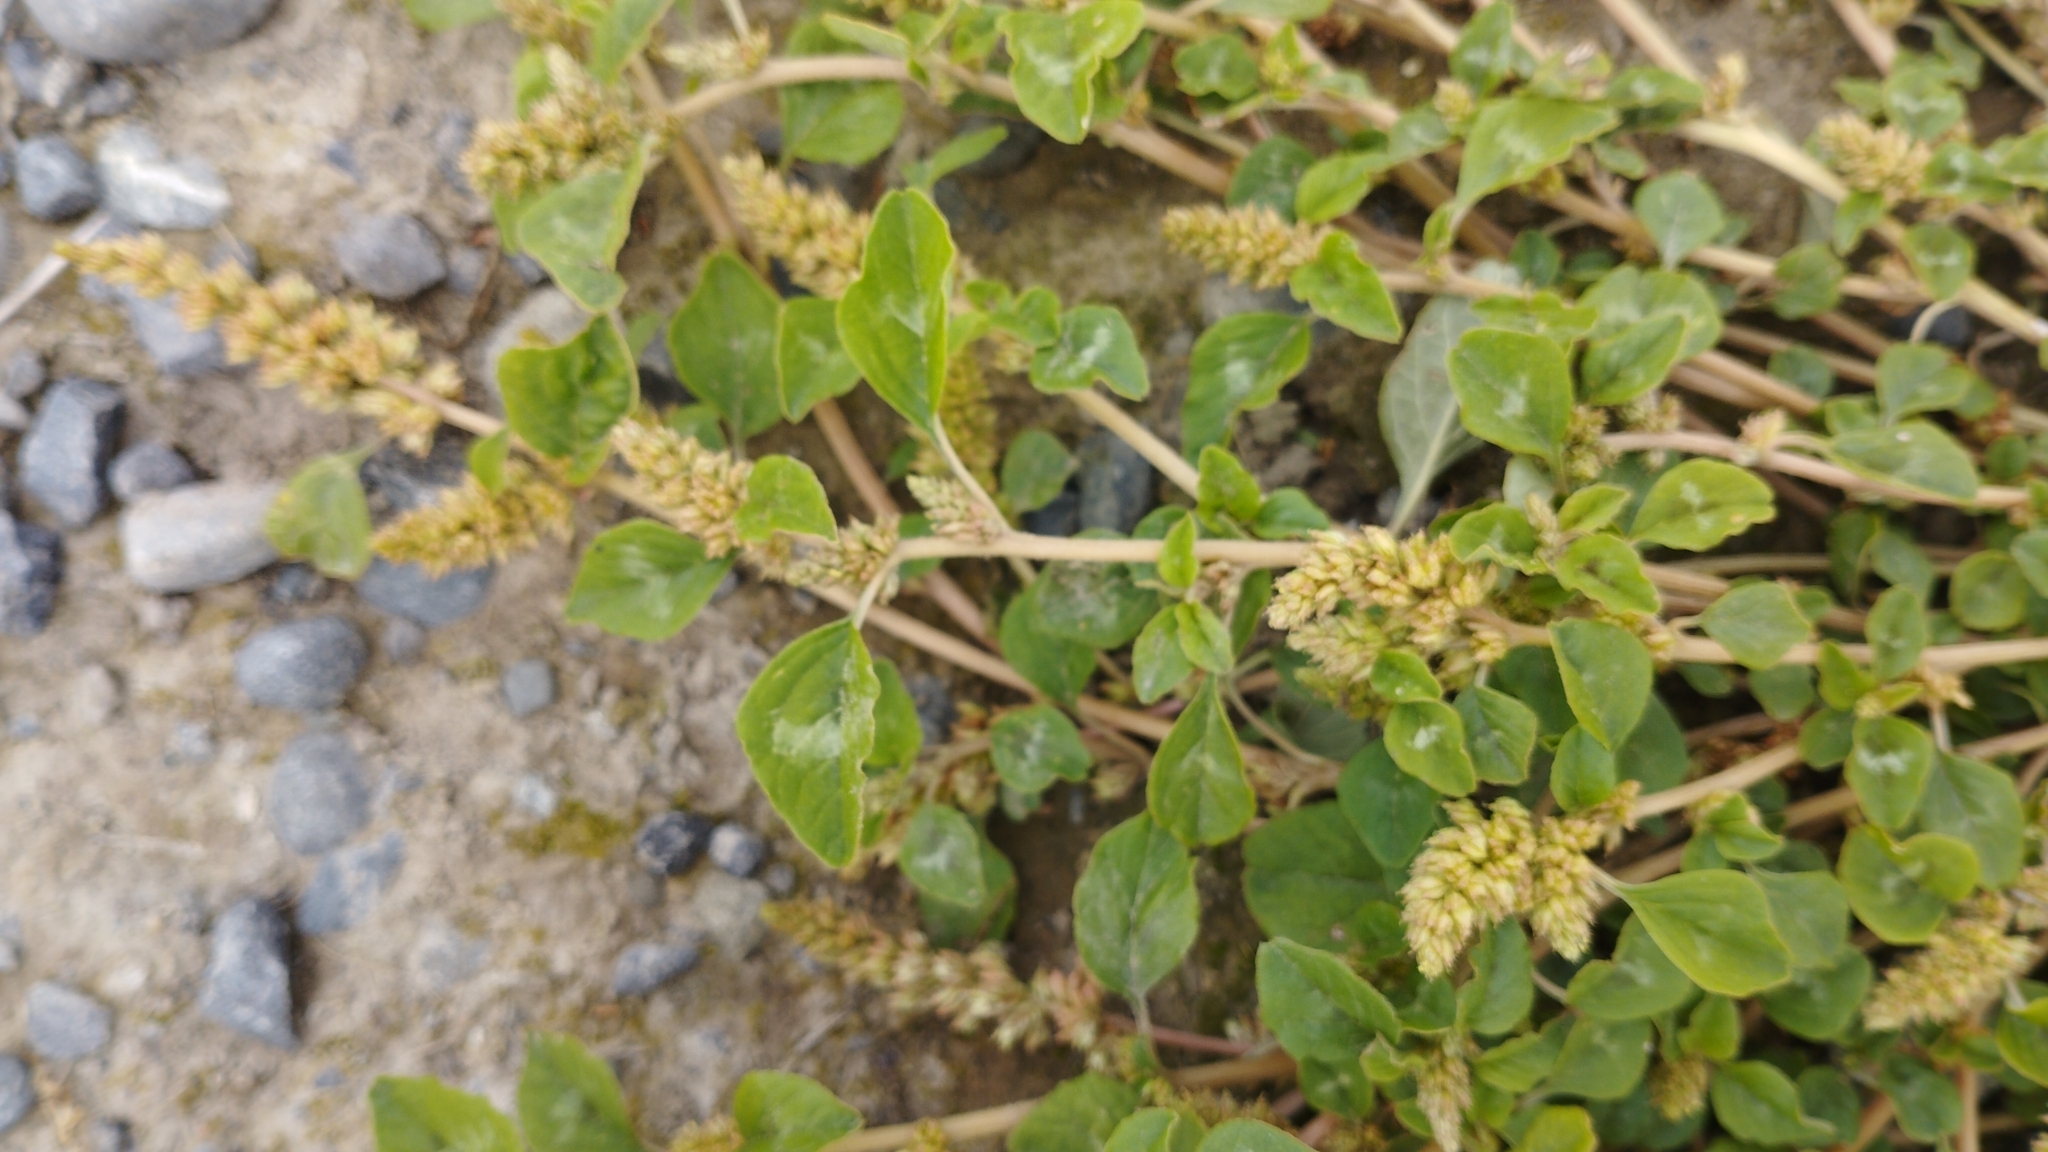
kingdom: Plantae
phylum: Tracheophyta
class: Magnoliopsida
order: Caryophyllales
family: Amaranthaceae
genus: Amaranthus
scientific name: Amaranthus deflexus
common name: Perennial pigweed
